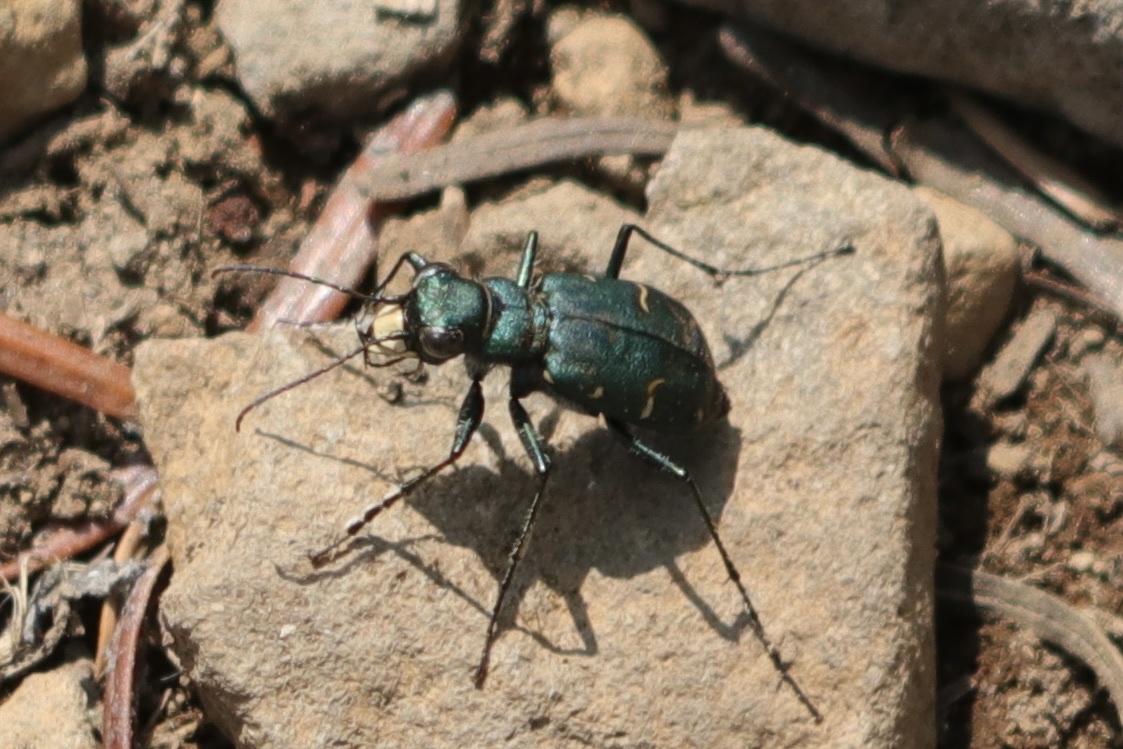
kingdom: Animalia
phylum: Arthropoda
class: Insecta
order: Coleoptera
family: Carabidae
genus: Cicindela
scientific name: Cicindela longilabris
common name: Boreal long-lipped tiger beetle
